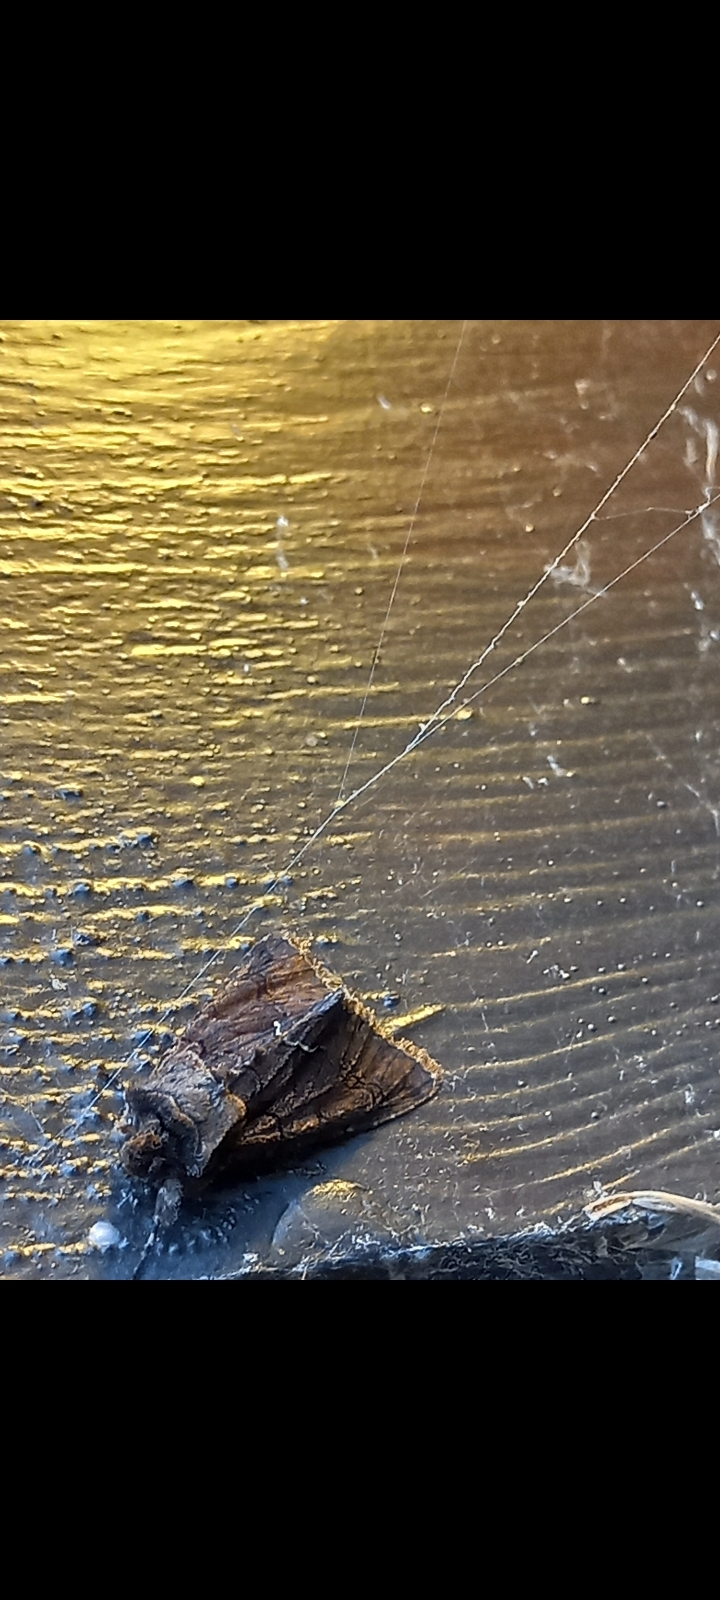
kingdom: Animalia
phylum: Arthropoda
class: Insecta
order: Lepidoptera
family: Noctuidae
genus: Allophyes
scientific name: Allophyes oxyacanthae
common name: Green-brindled crescent
